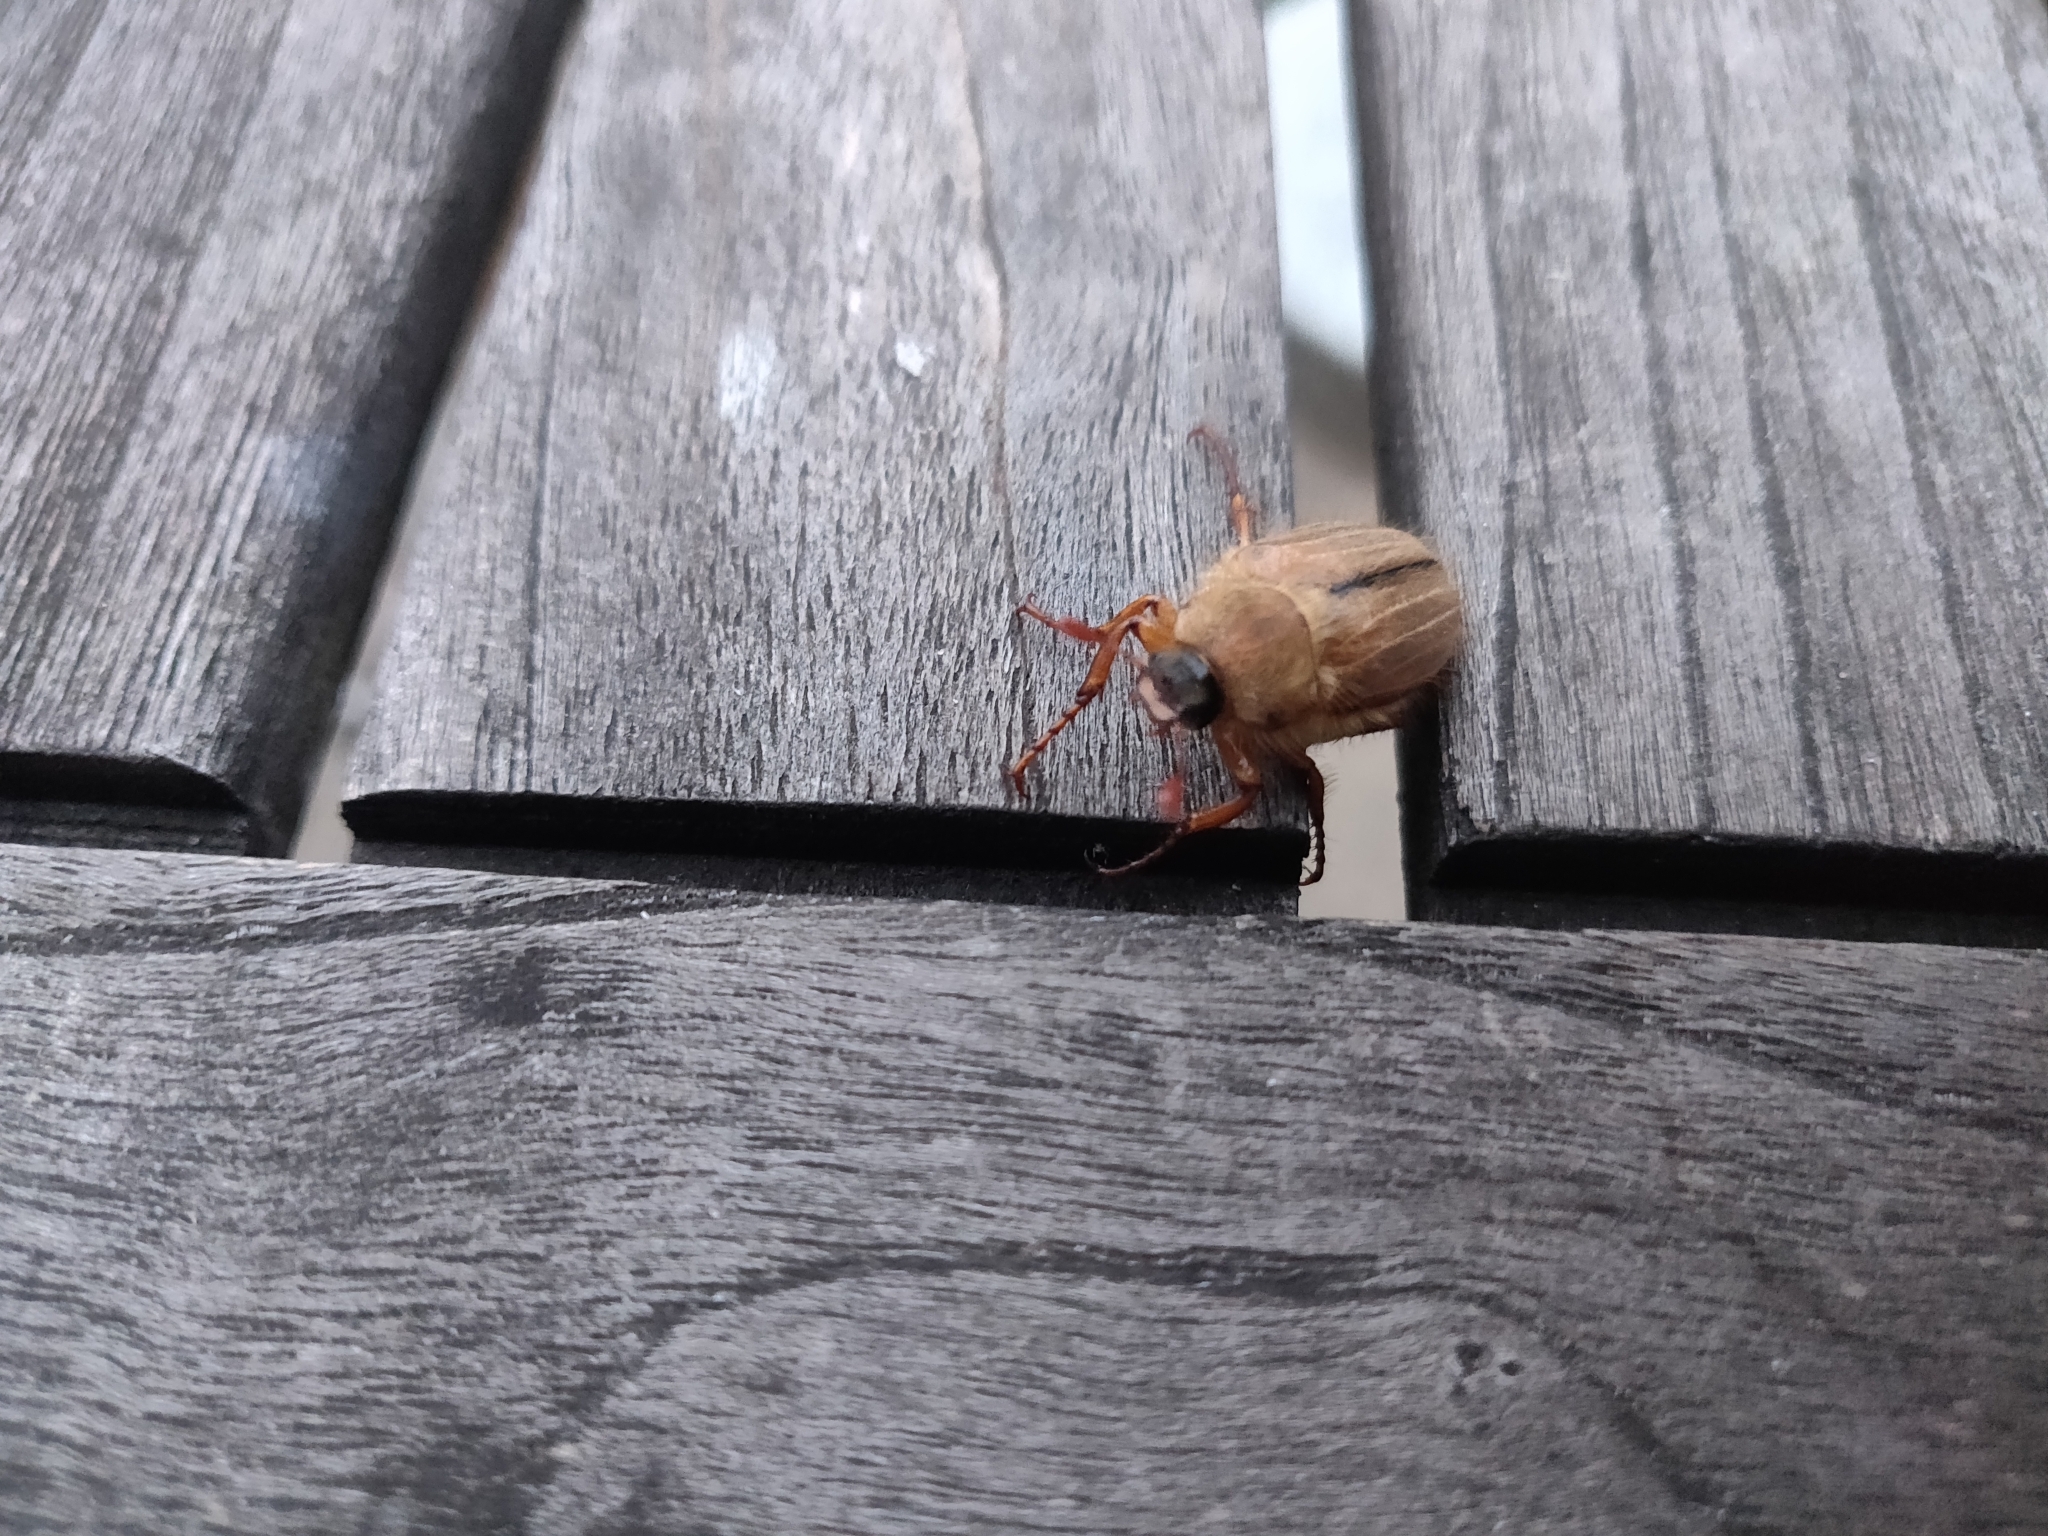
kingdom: Animalia
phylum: Arthropoda
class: Insecta
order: Coleoptera
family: Scarabaeidae
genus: Amphimallon
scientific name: Amphimallon solstitiale
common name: Summer chafer
